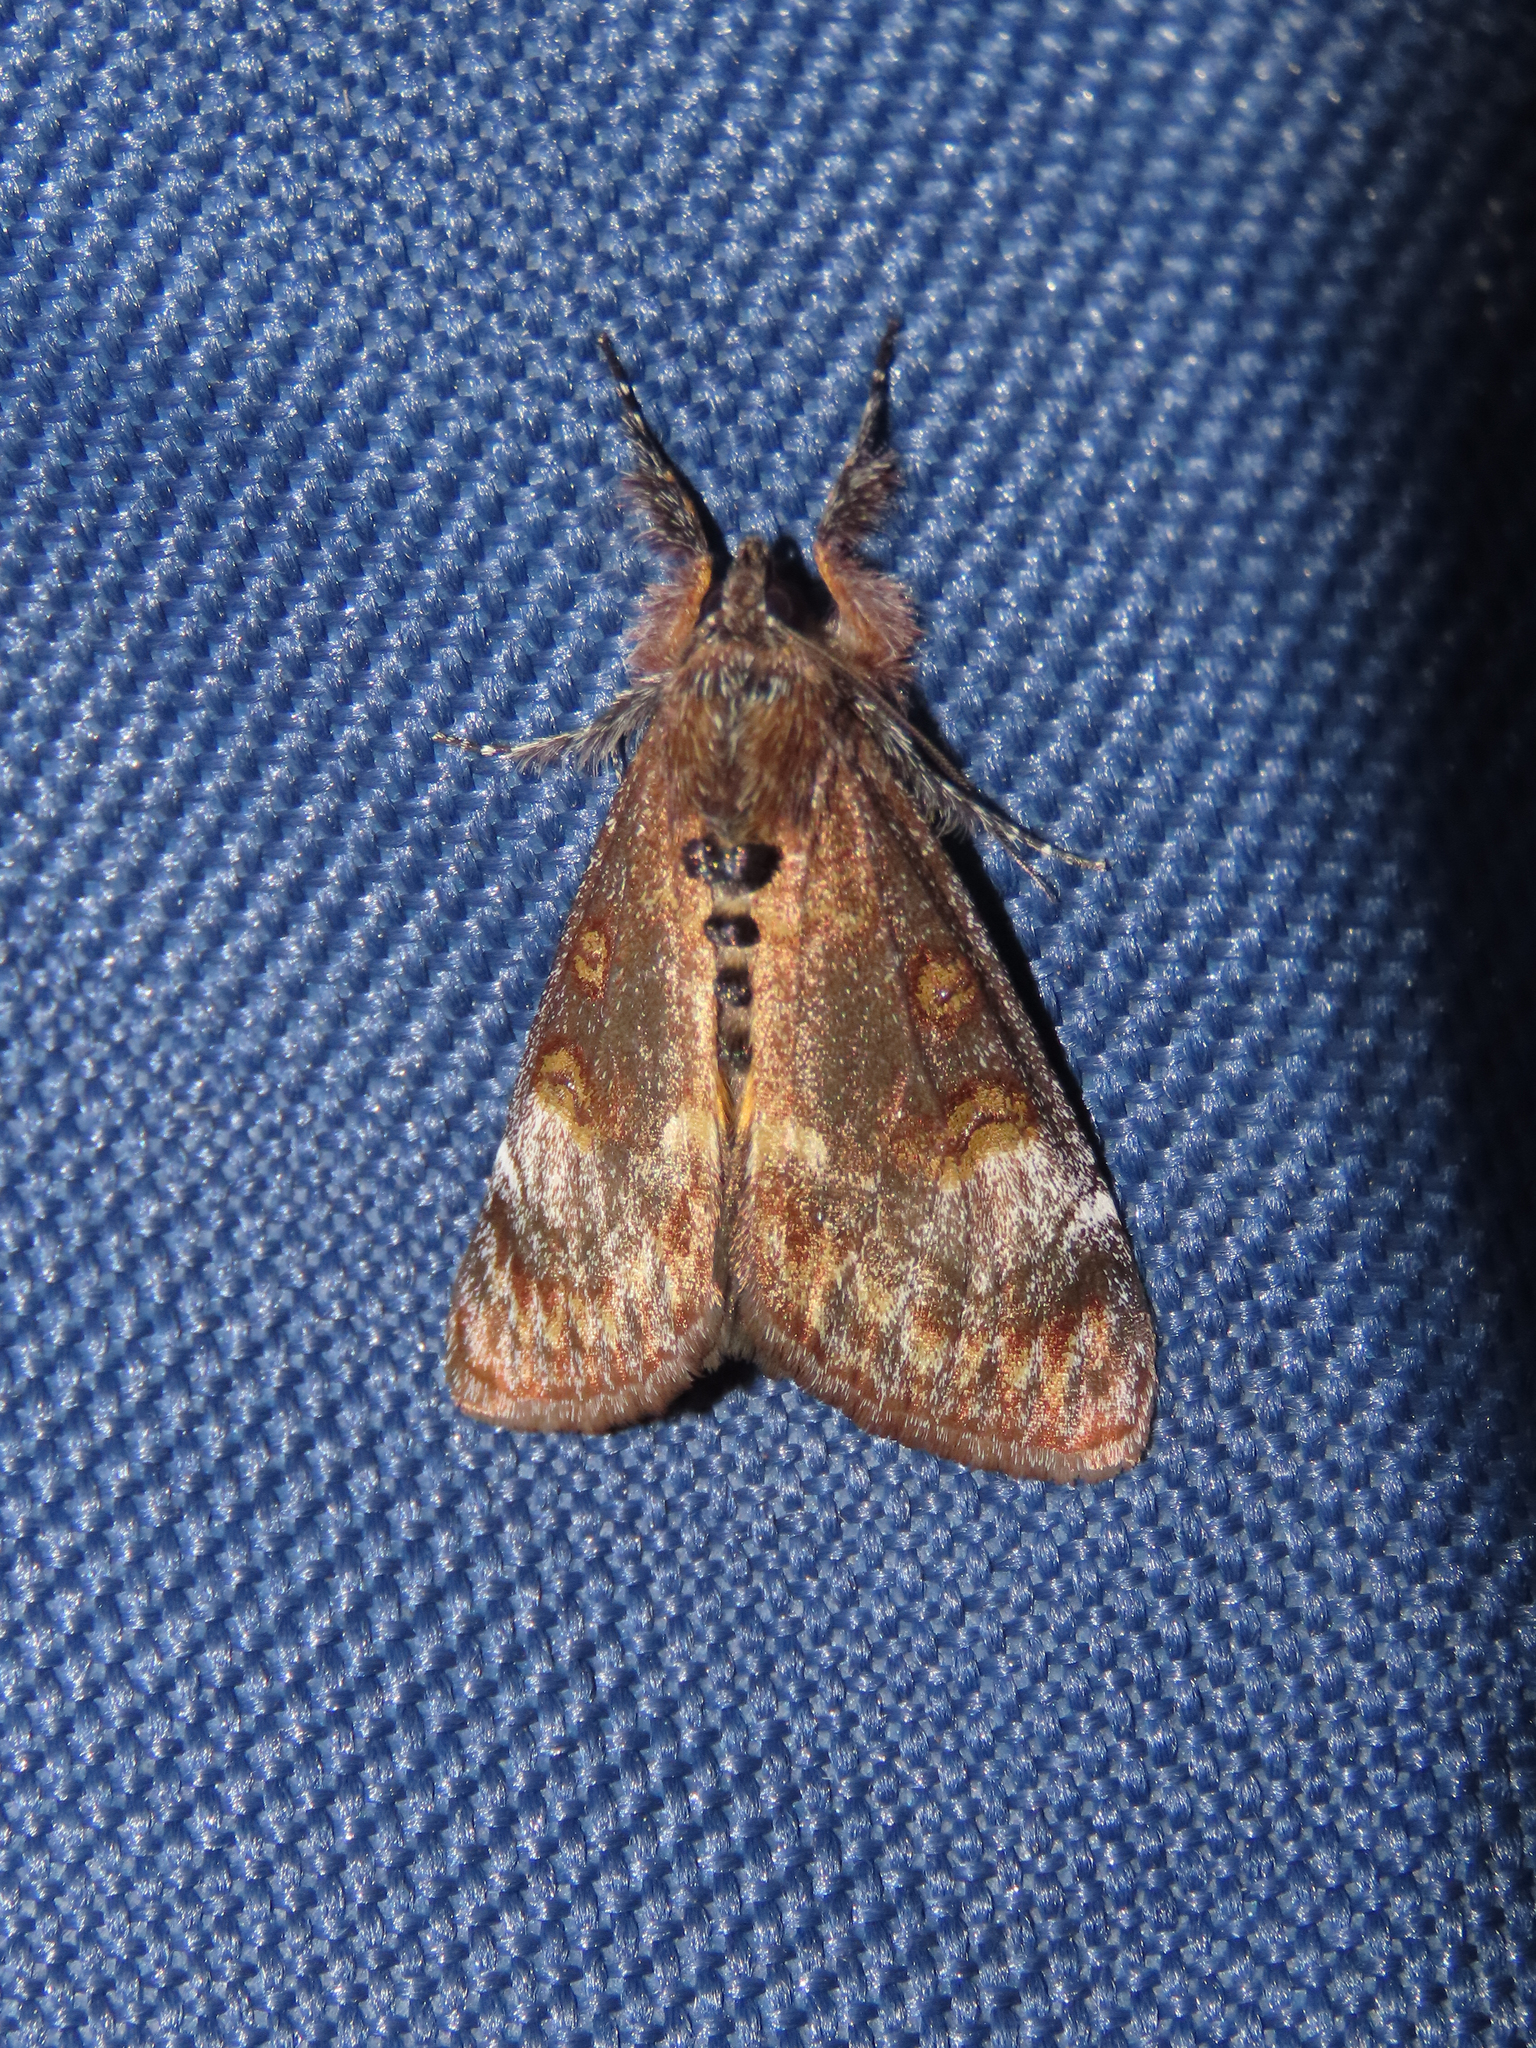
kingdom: Animalia
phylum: Arthropoda
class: Insecta
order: Lepidoptera
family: Noctuidae
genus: Gerra
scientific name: Gerra sevorsa
